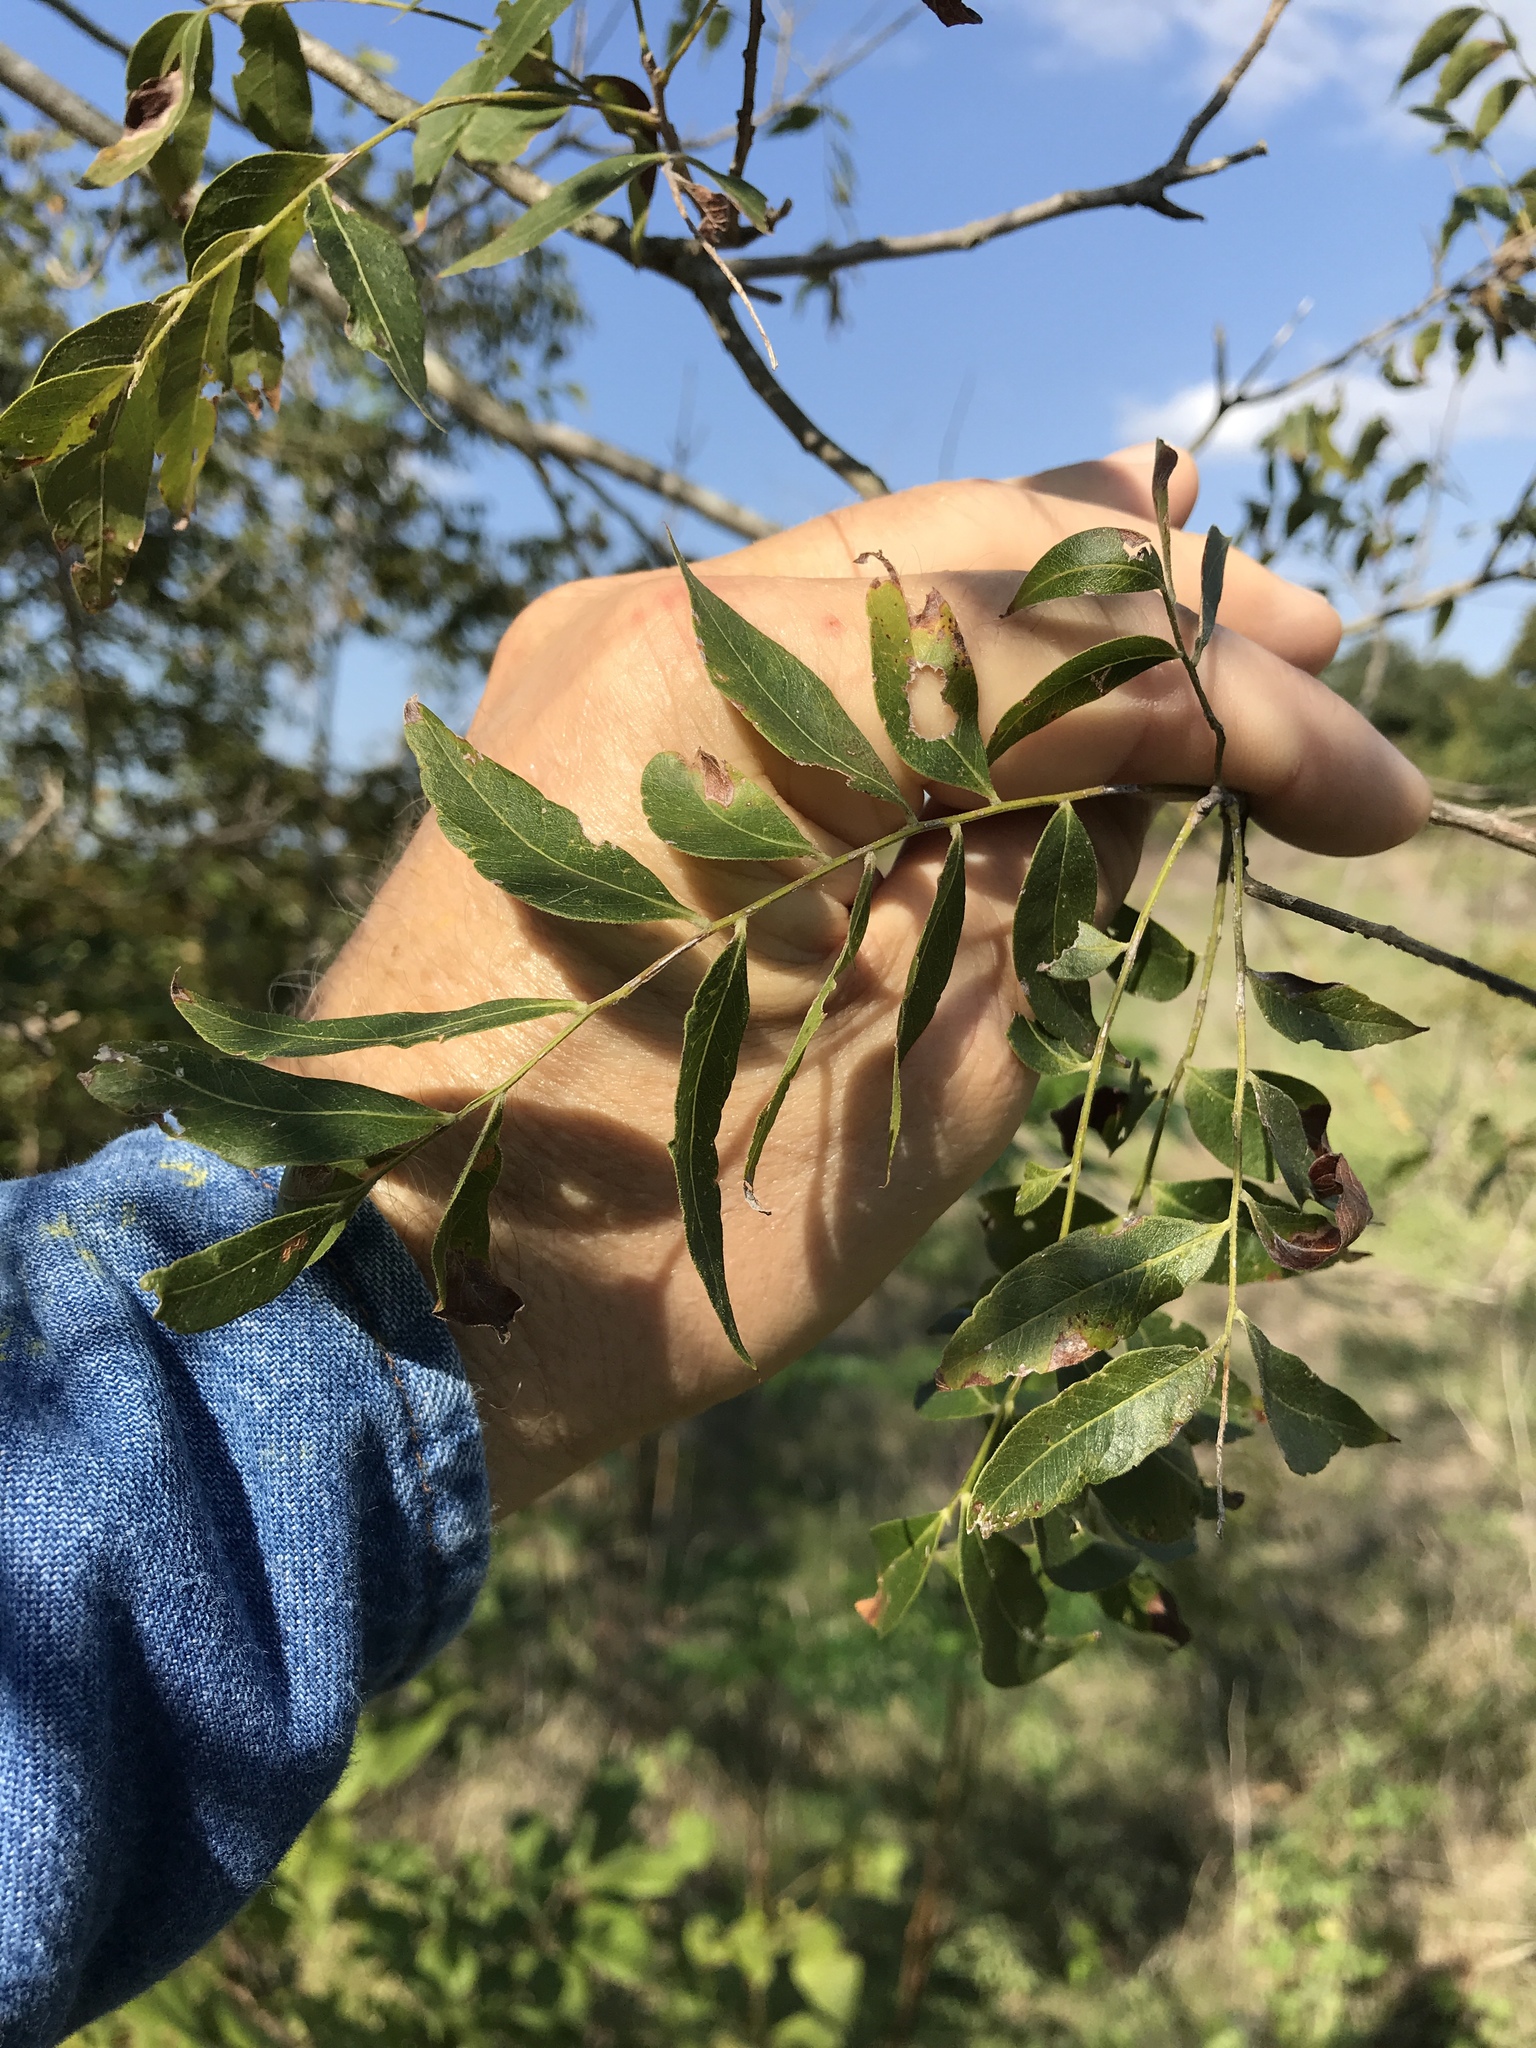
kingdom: Plantae
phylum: Tracheophyta
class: Magnoliopsida
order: Sapindales
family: Sapindaceae
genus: Sapindus
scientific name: Sapindus drummondii
